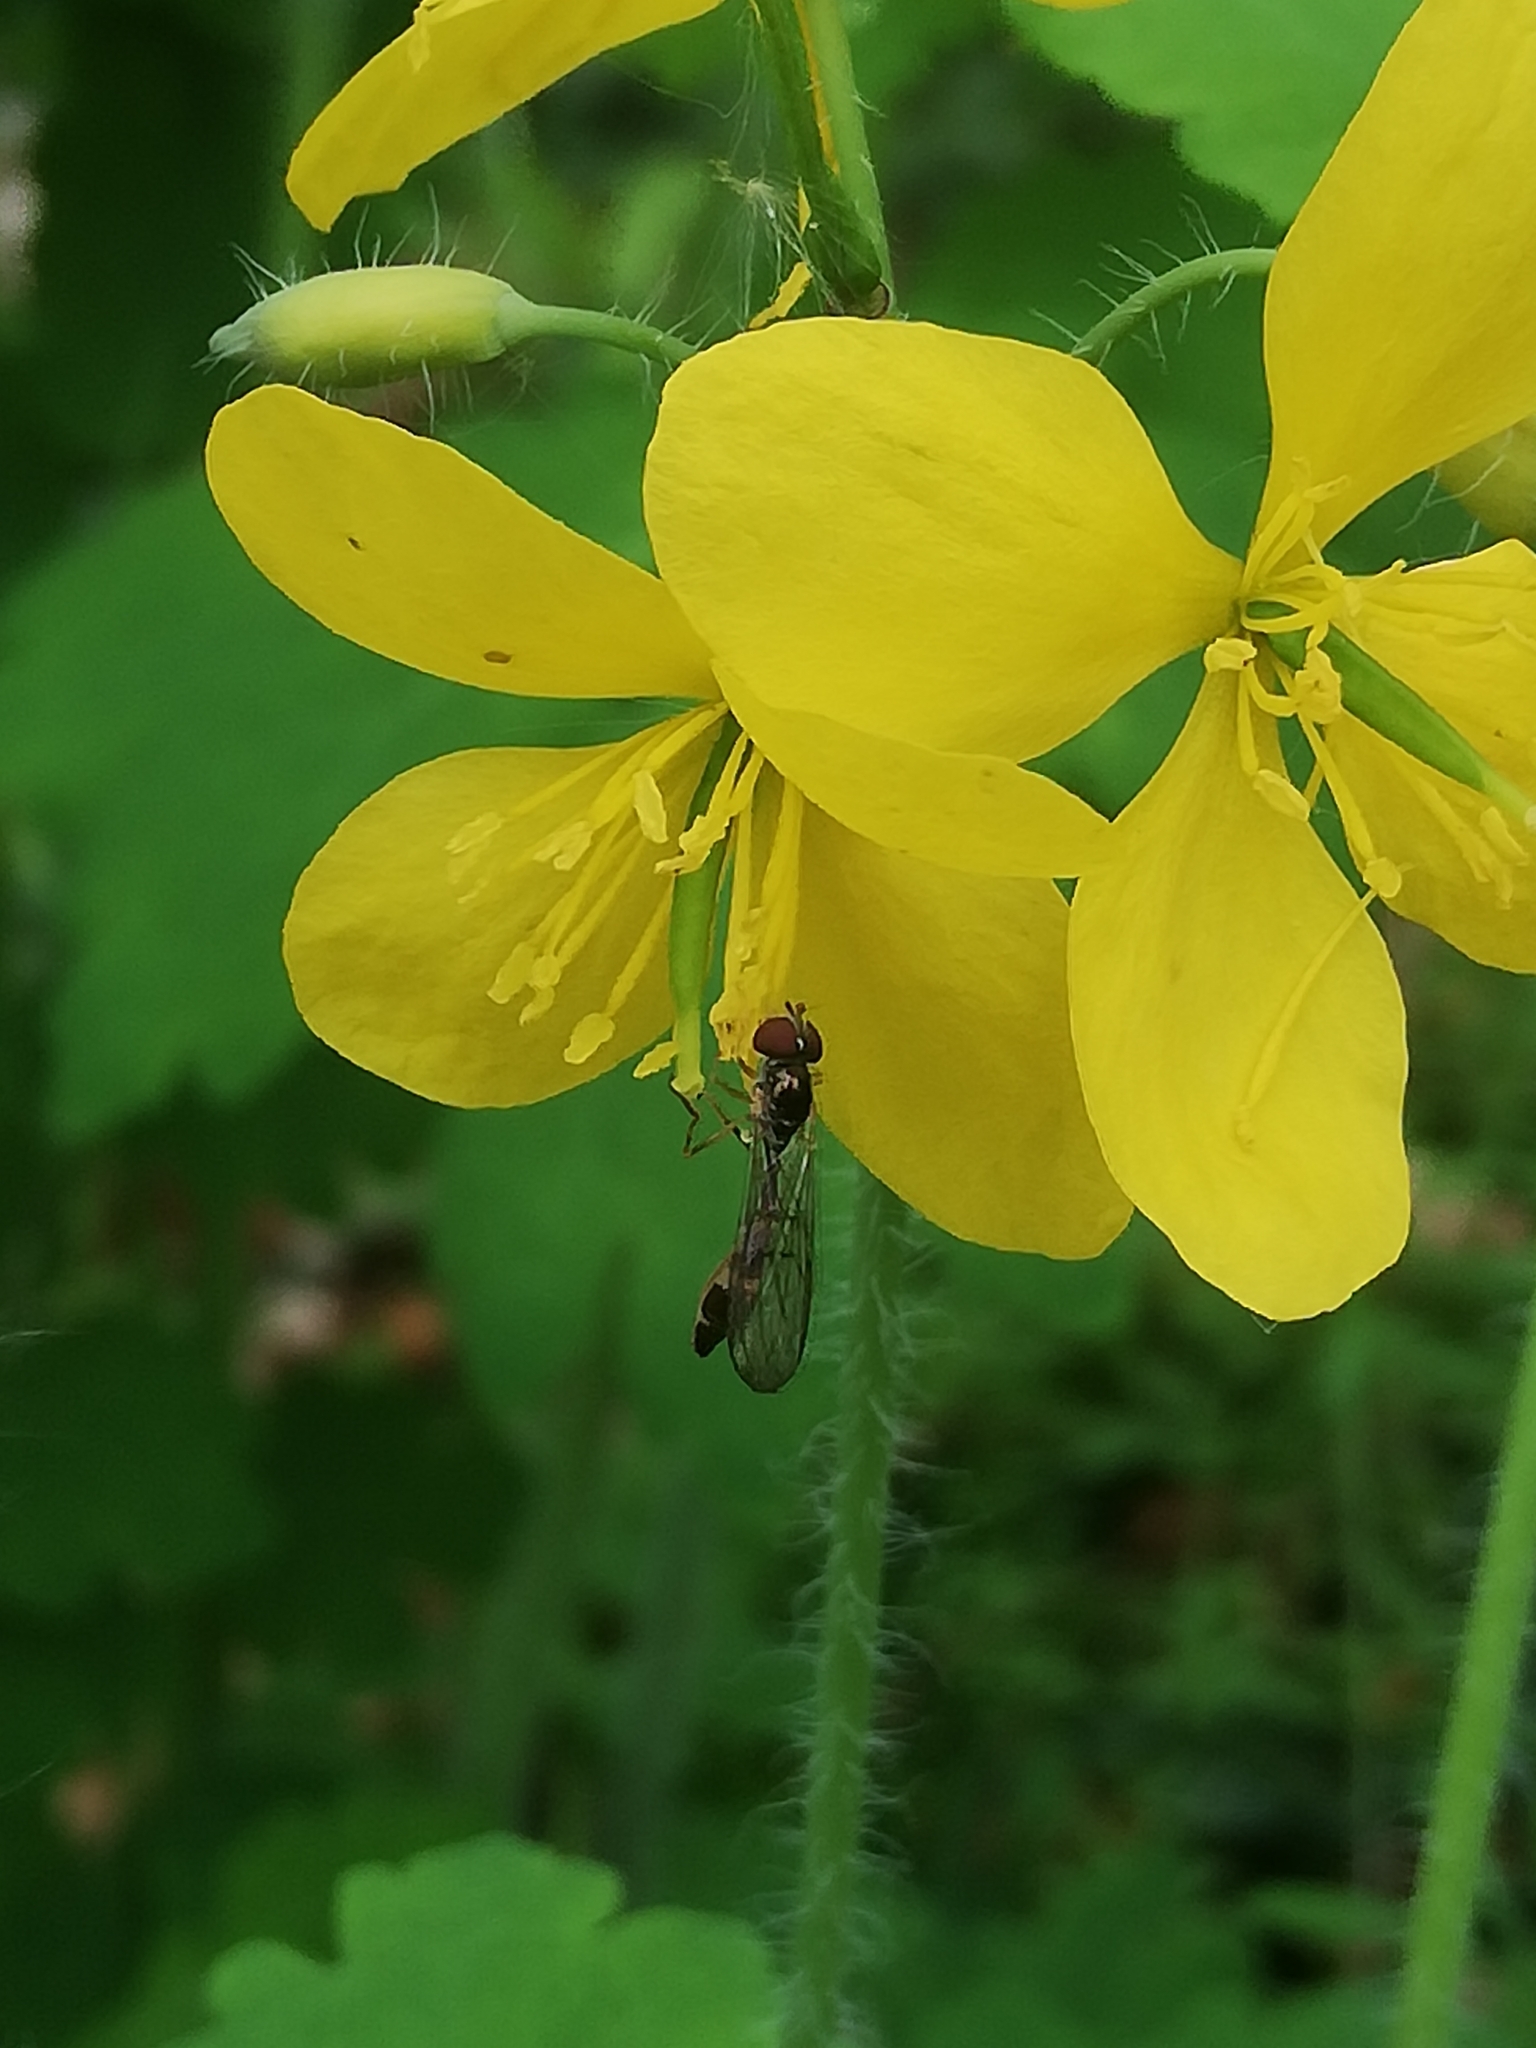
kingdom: Animalia
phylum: Arthropoda
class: Insecta
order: Diptera
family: Syrphidae
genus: Baccha
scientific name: Baccha elongata
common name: Common dainty
